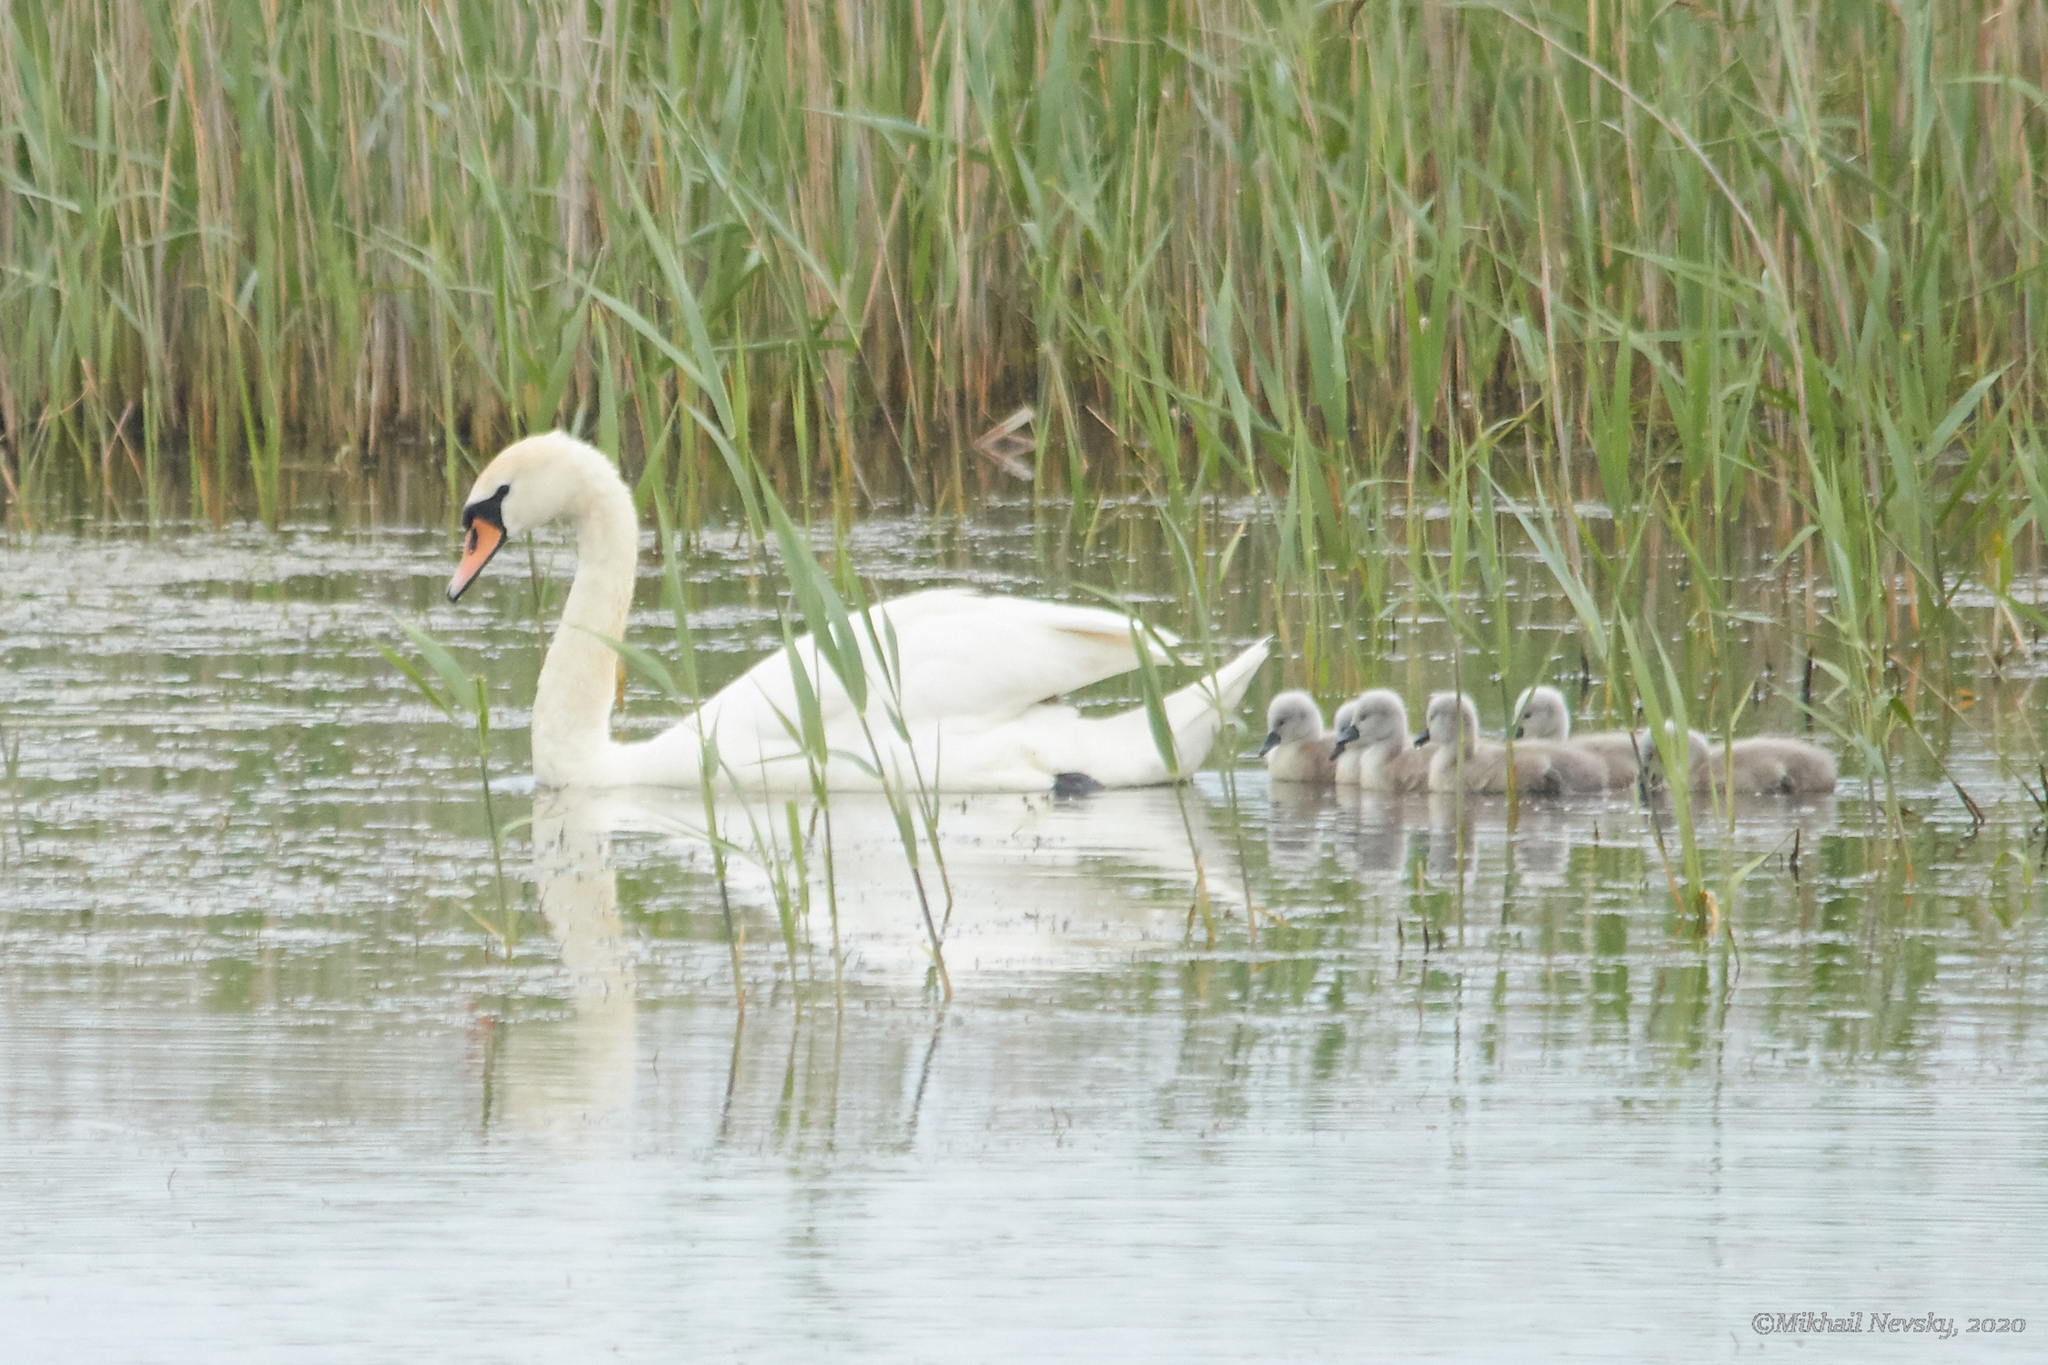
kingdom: Animalia
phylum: Chordata
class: Aves
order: Anseriformes
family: Anatidae
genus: Cygnus
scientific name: Cygnus olor
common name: Mute swan
